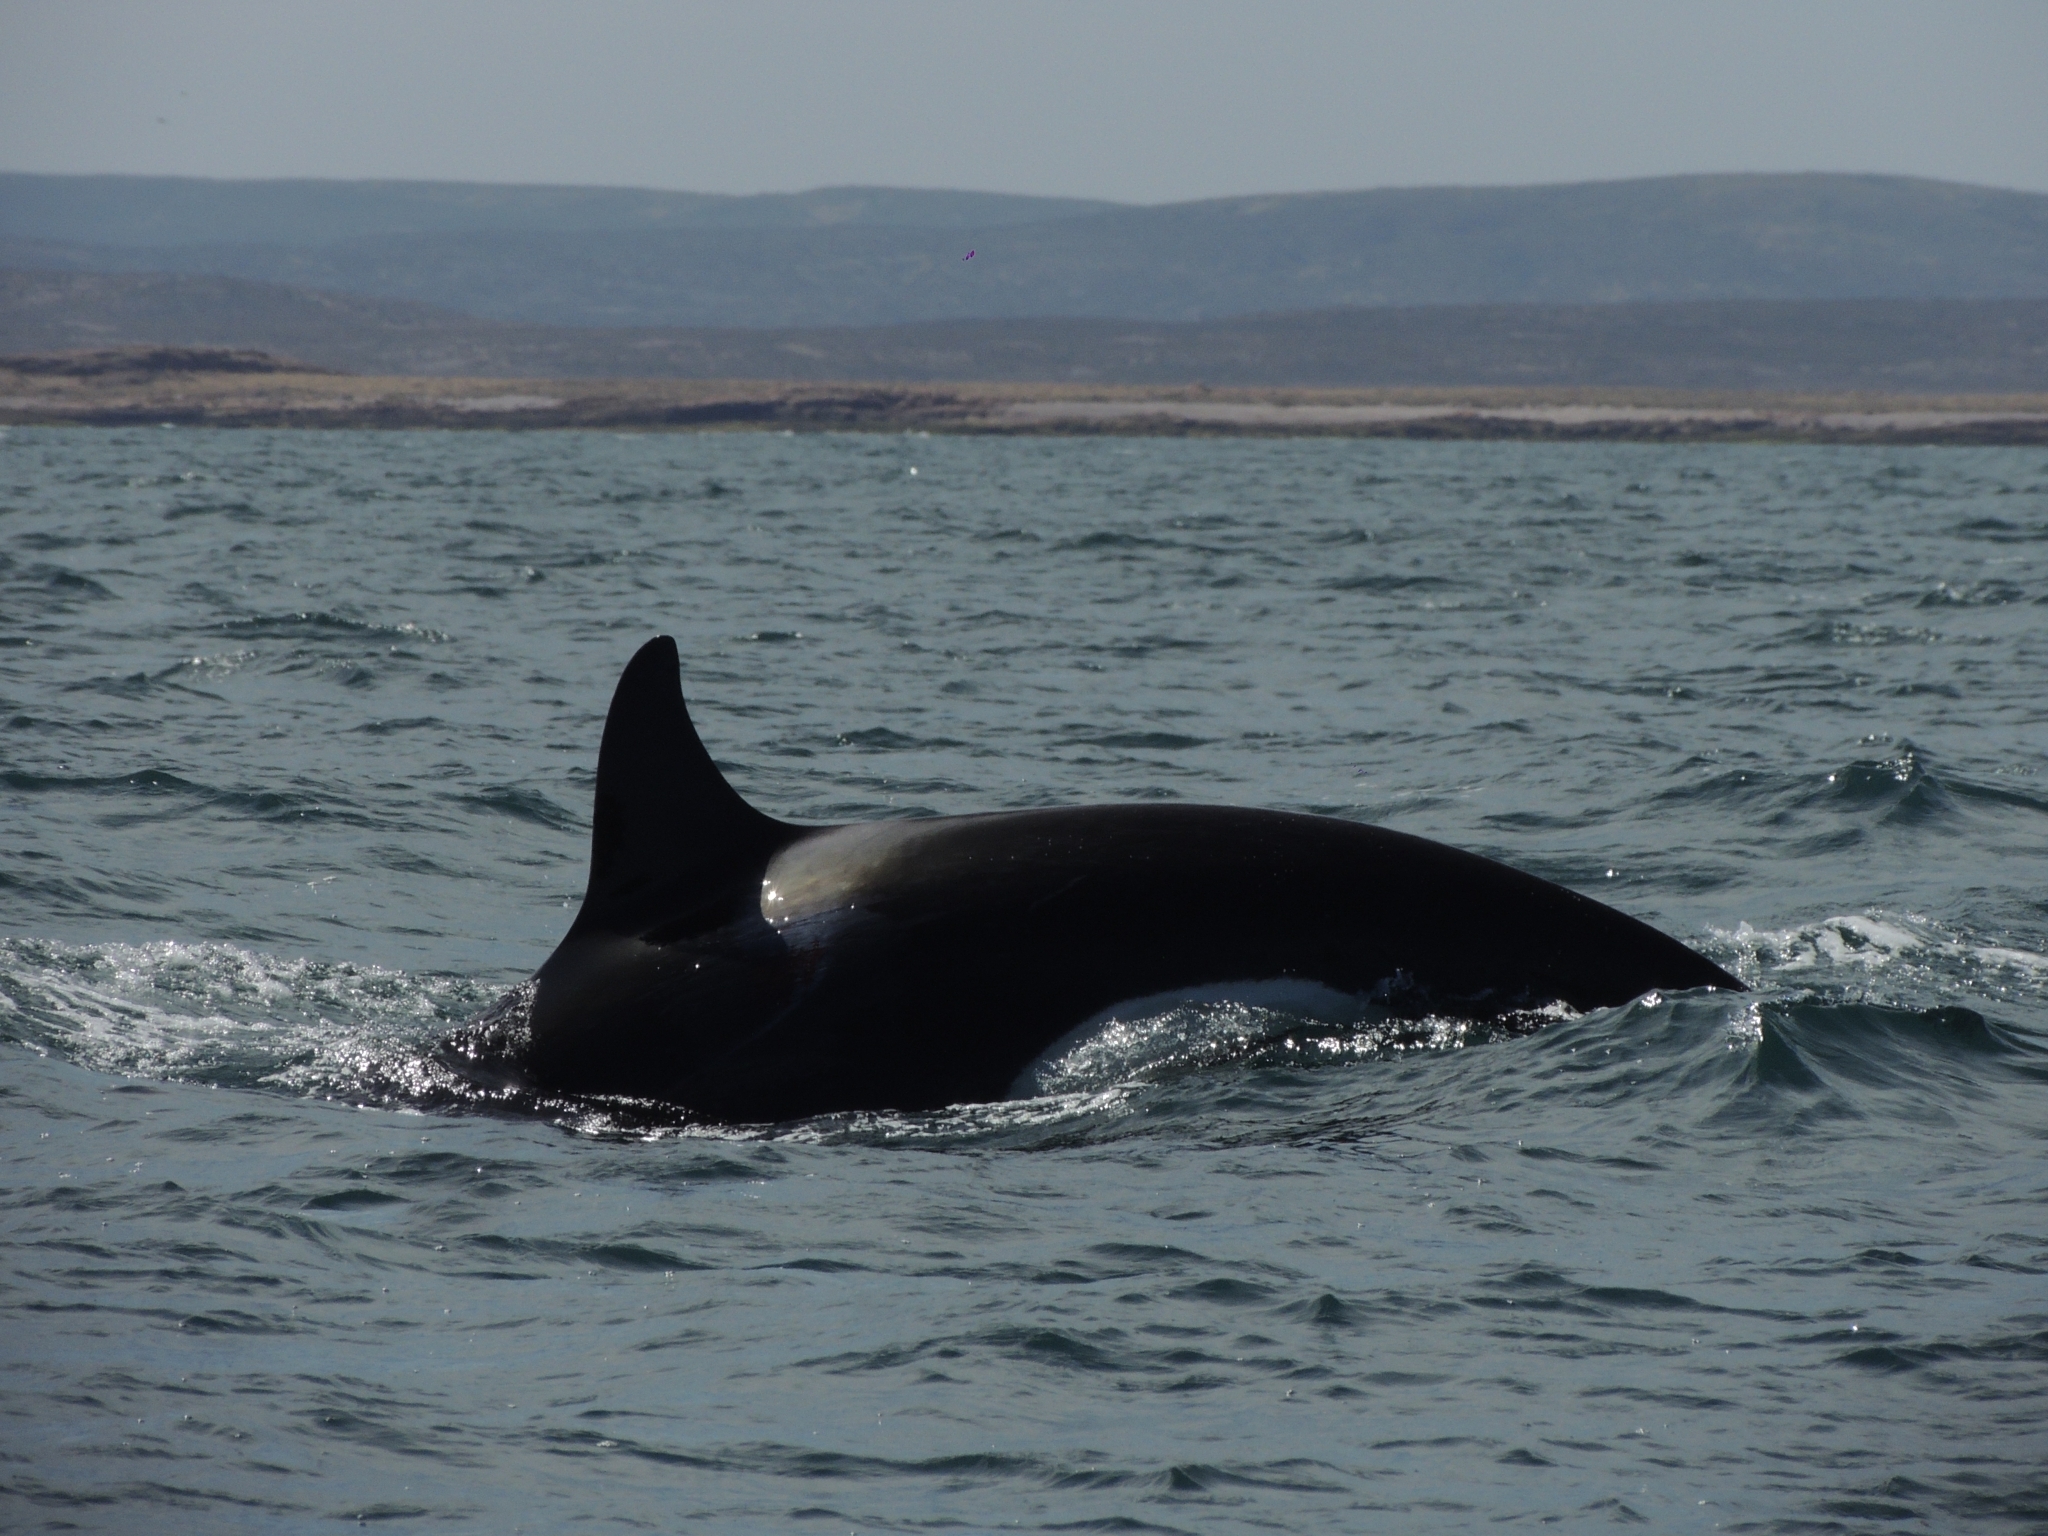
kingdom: Animalia
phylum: Chordata
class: Mammalia
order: Cetacea
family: Delphinidae
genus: Orcinus
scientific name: Orcinus orca
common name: Killer whale
